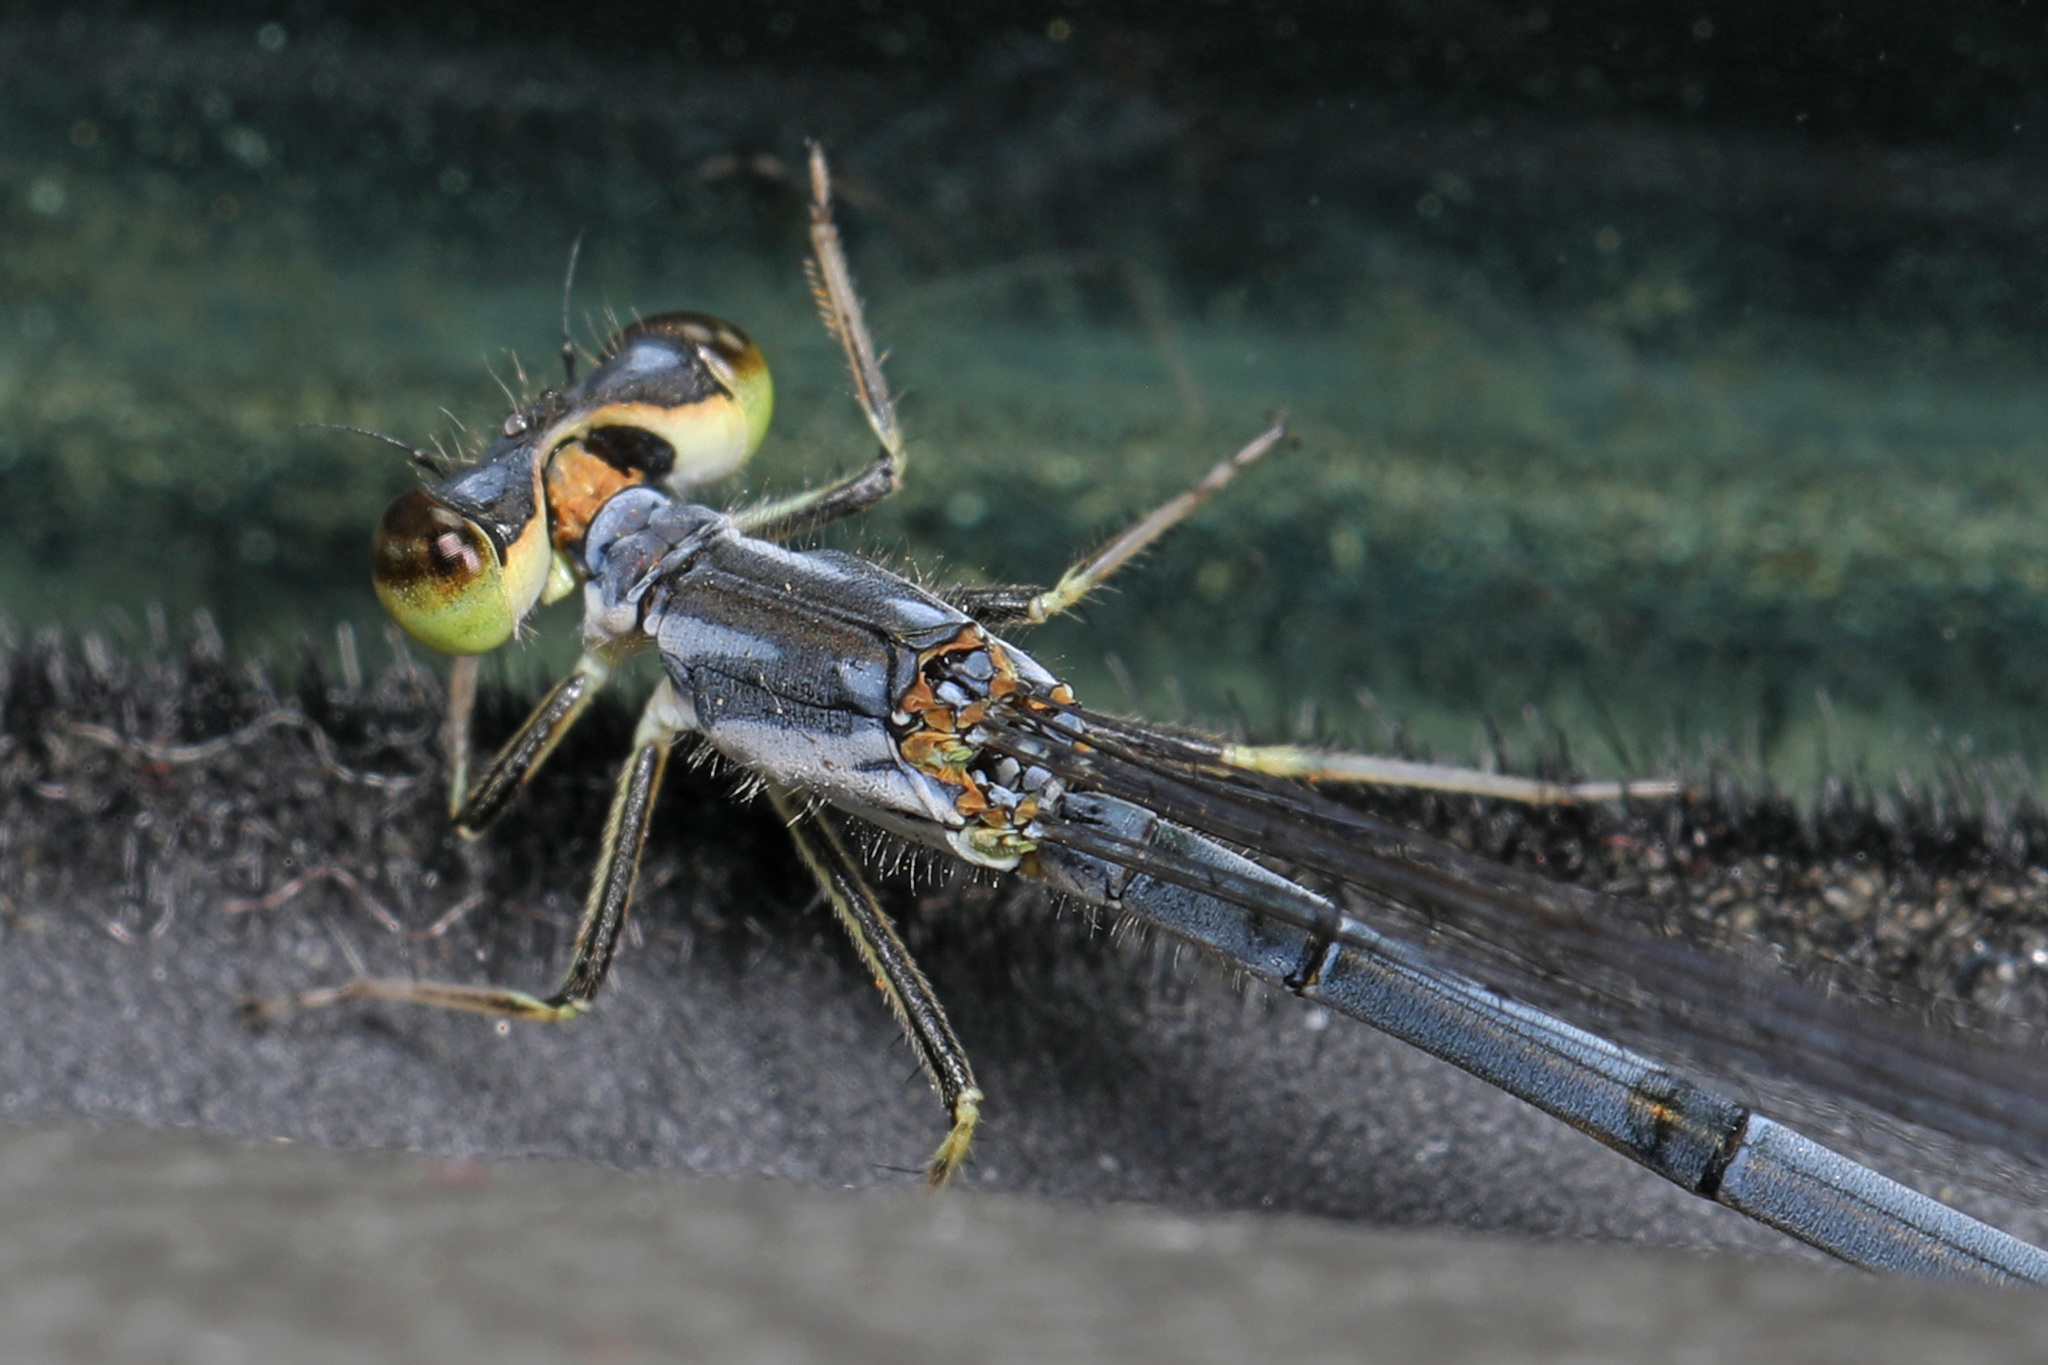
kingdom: Animalia
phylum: Arthropoda
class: Insecta
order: Odonata
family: Coenagrionidae
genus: Ischnura
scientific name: Ischnura posita
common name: Fragile forktail
